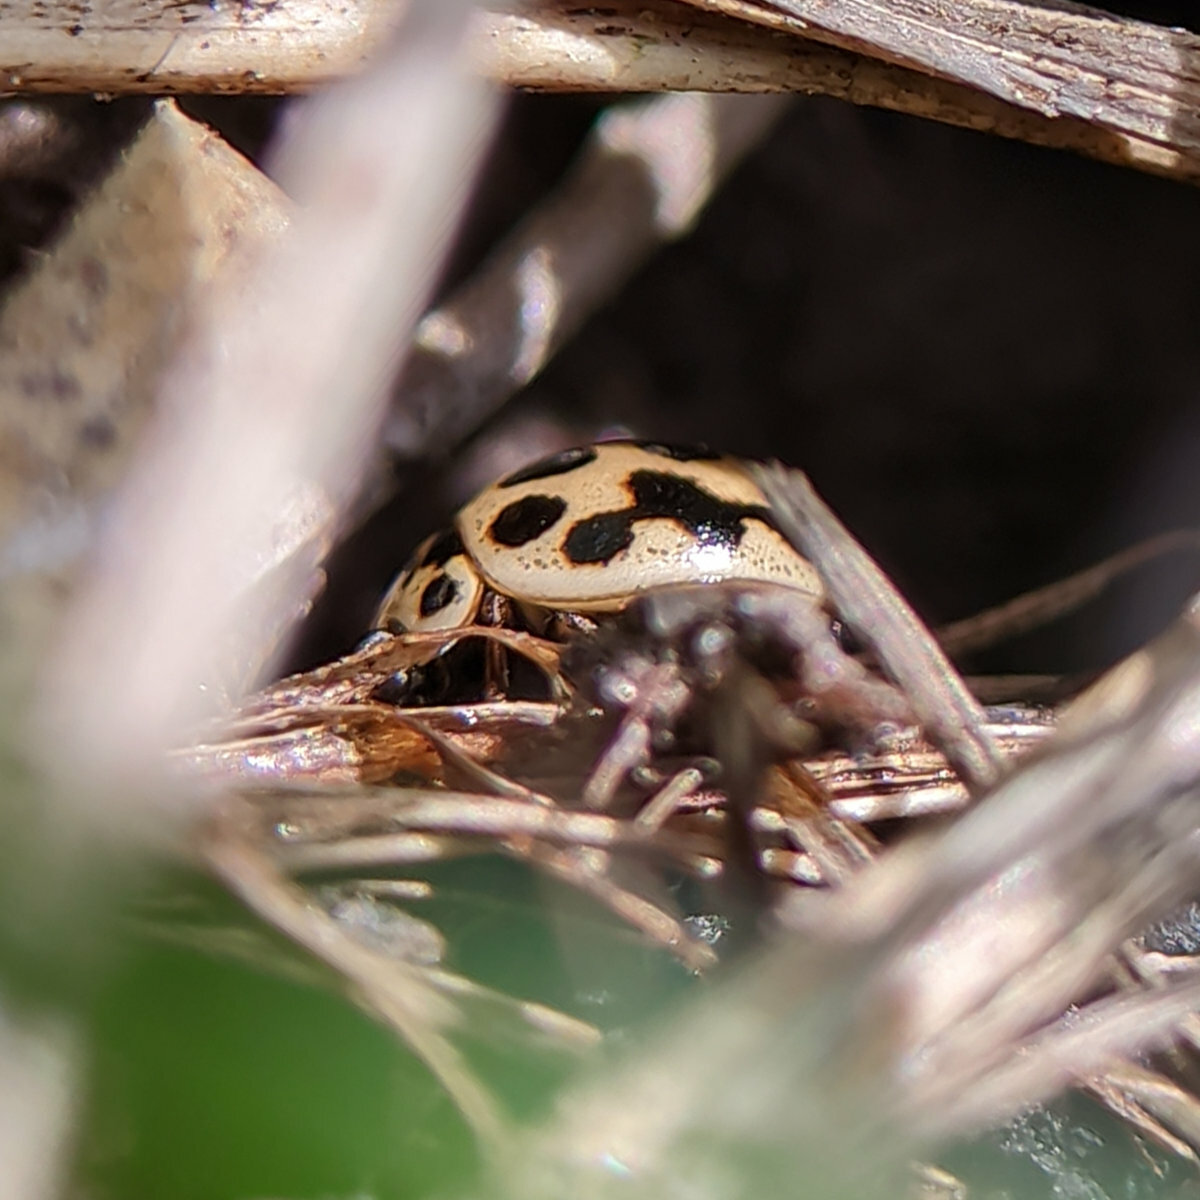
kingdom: Animalia
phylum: Arthropoda
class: Insecta
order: Coleoptera
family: Coccinellidae
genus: Tytthaspis
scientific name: Tytthaspis sedecimpunctata
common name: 16-spot ladybird
